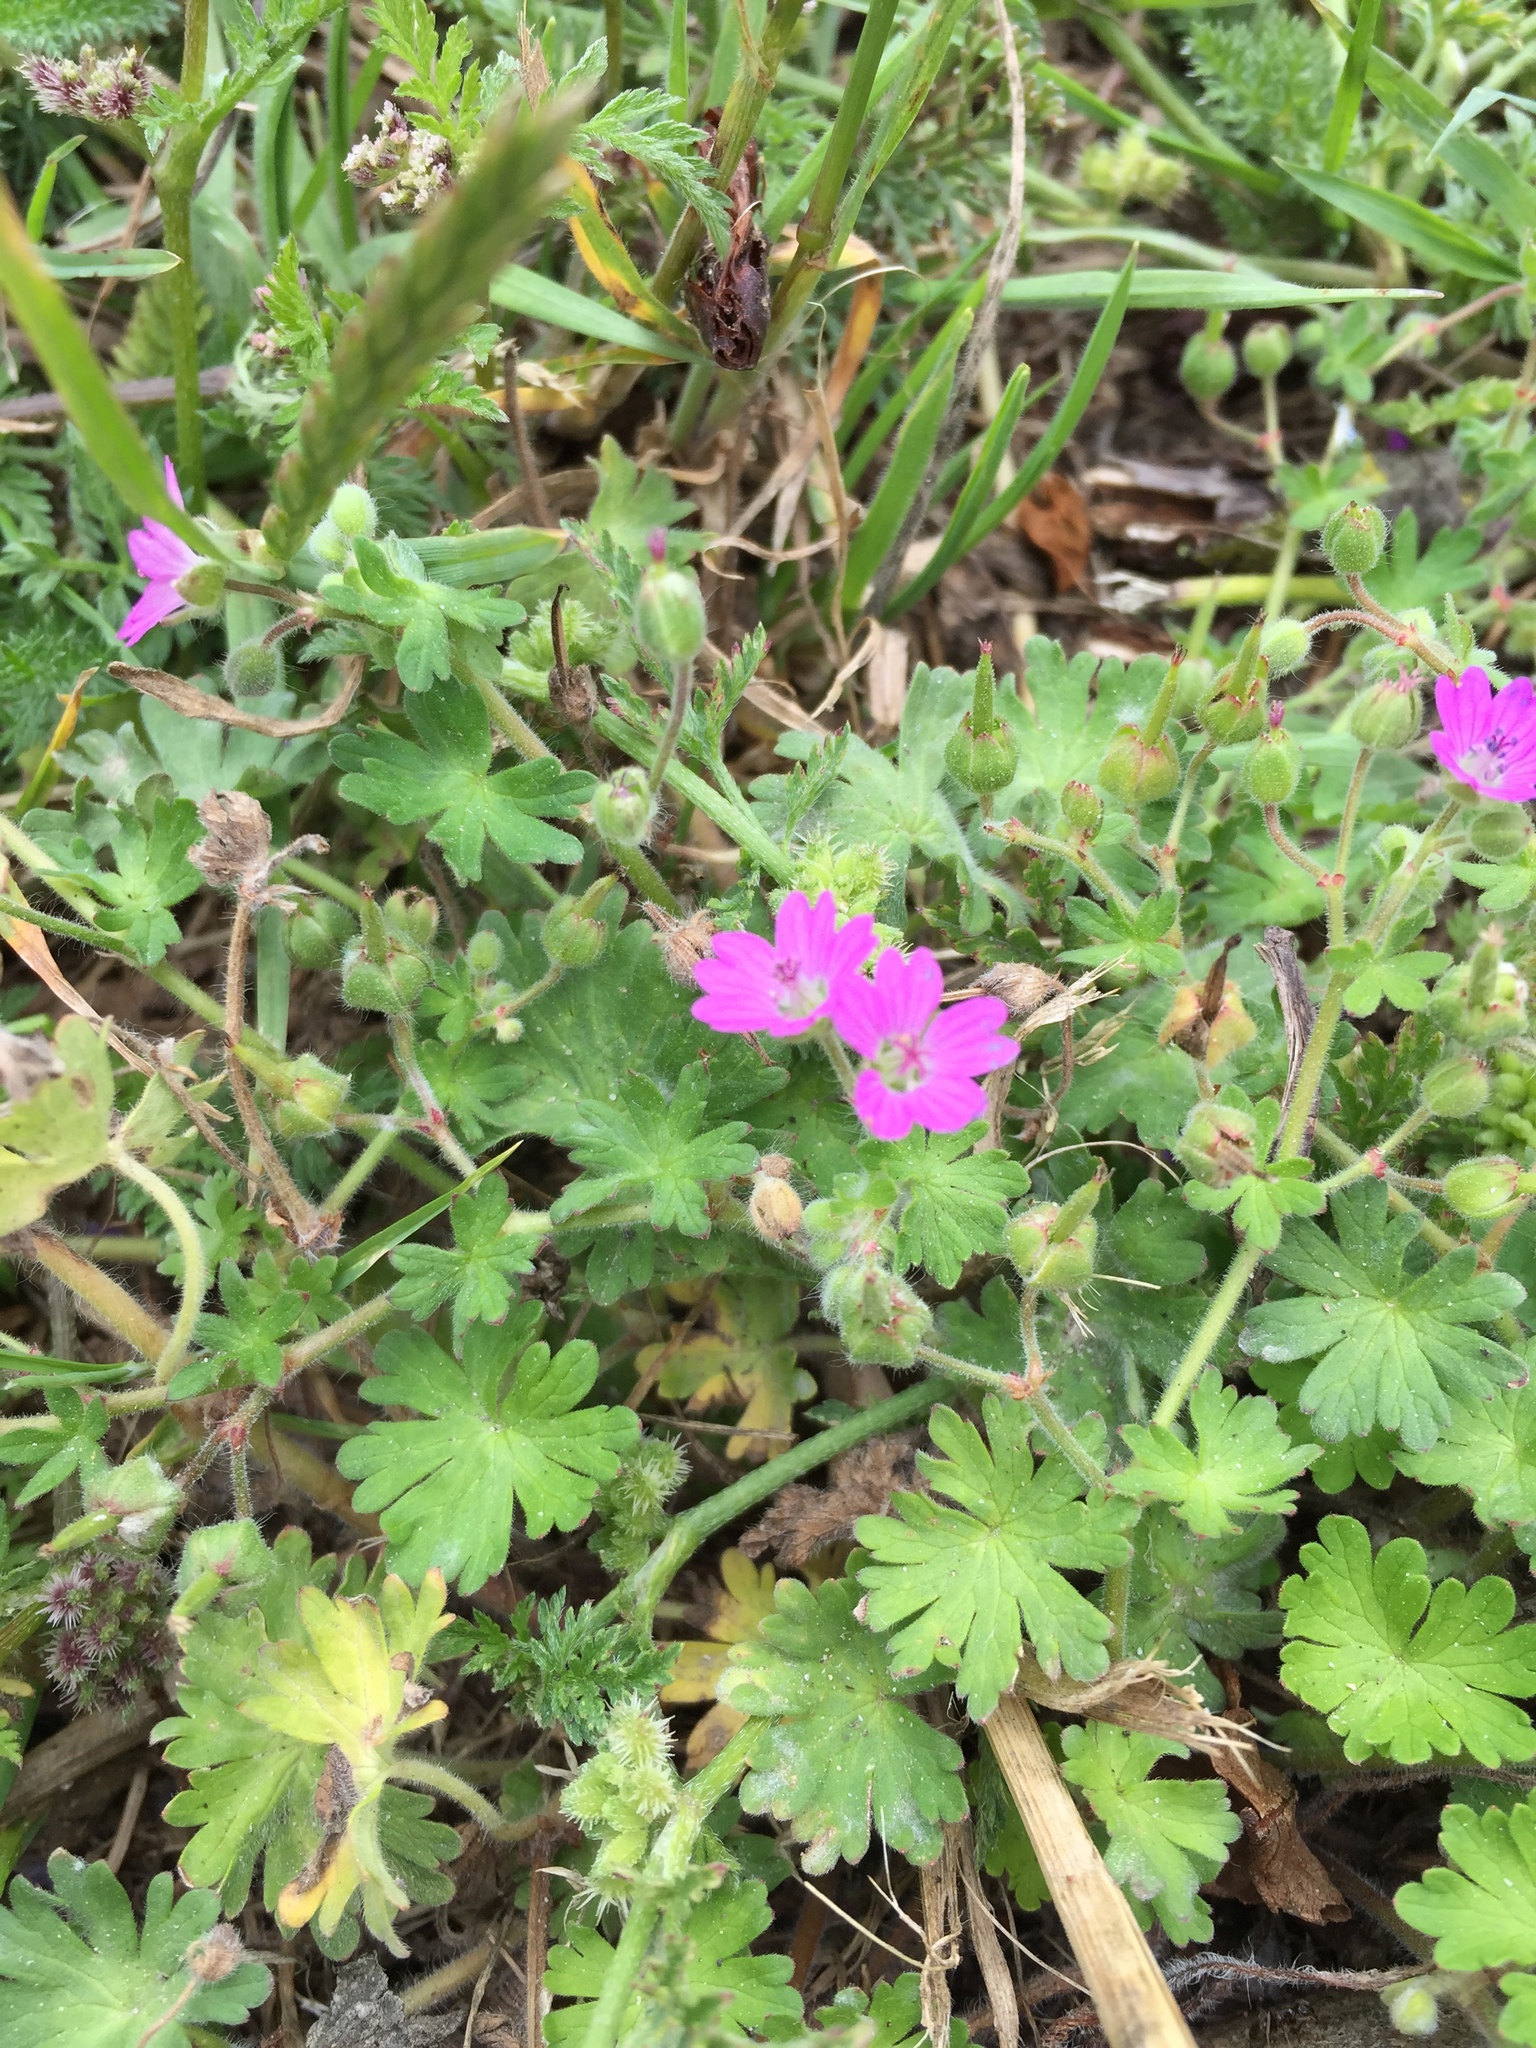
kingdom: Plantae
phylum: Tracheophyta
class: Magnoliopsida
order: Geraniales
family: Geraniaceae
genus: Geranium
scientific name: Geranium molle
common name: Dove's-foot crane's-bill
